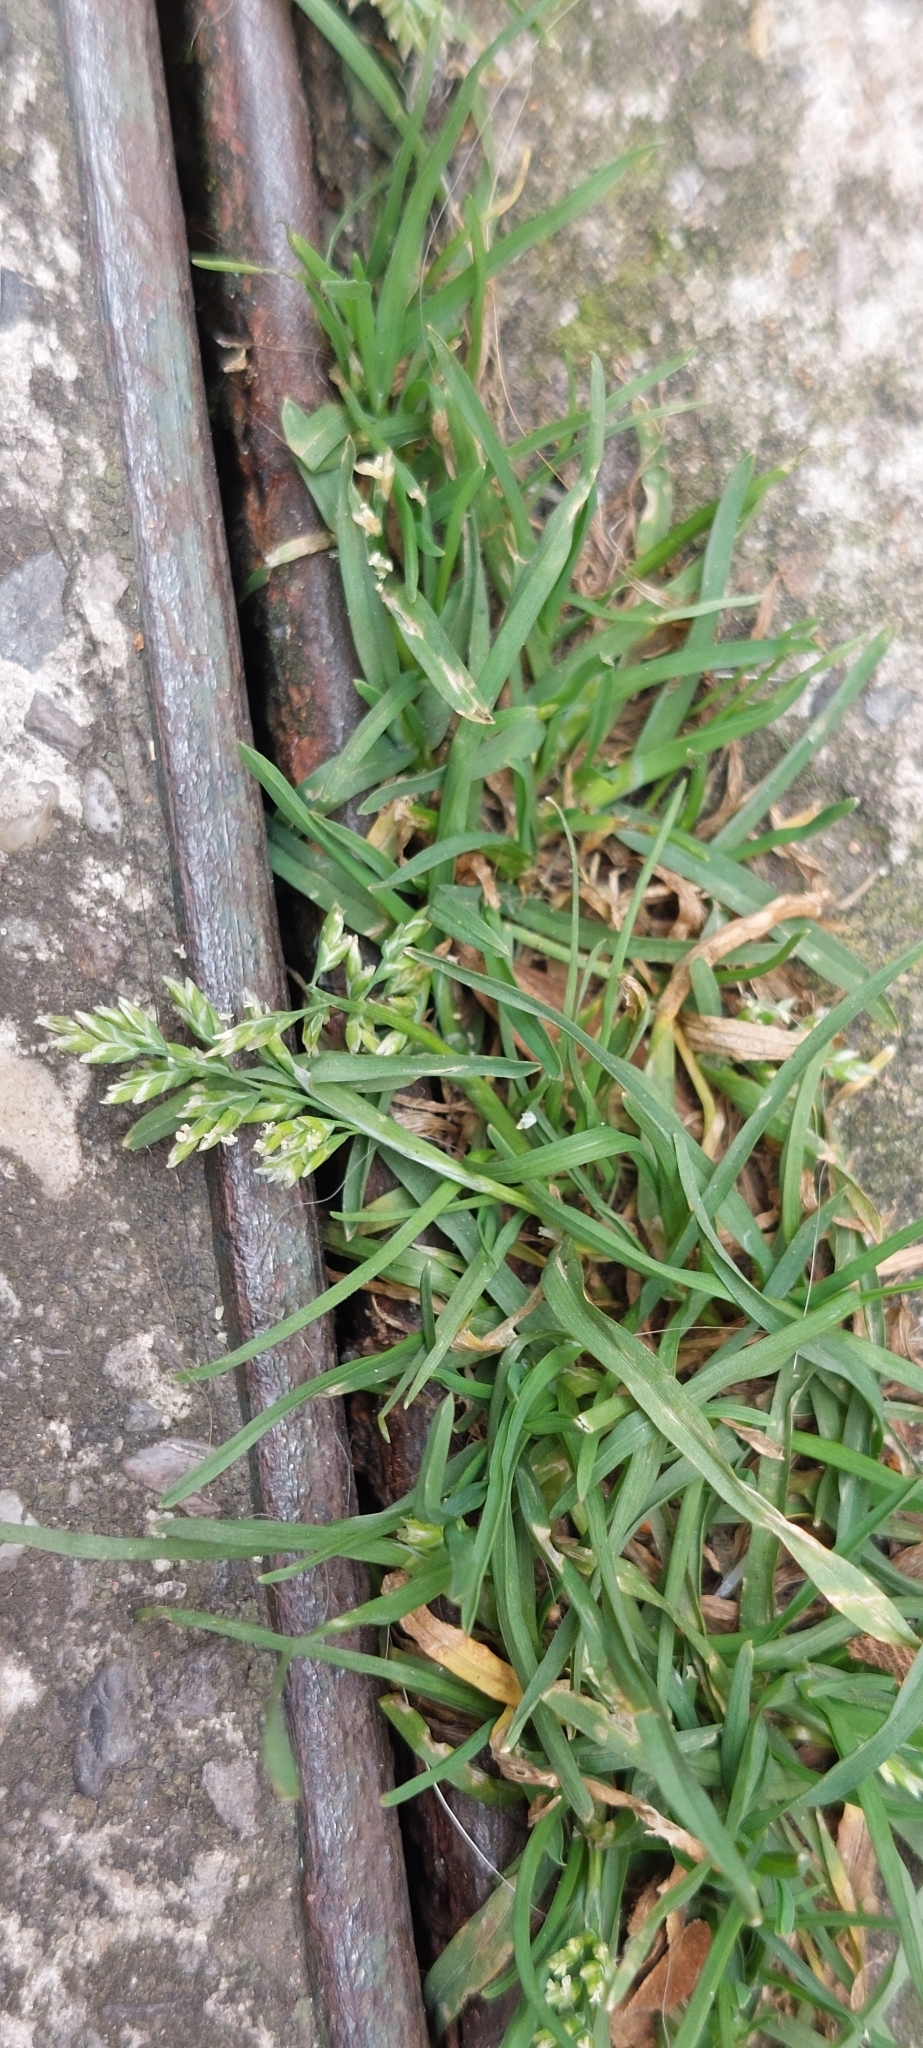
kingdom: Plantae
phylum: Tracheophyta
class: Liliopsida
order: Poales
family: Poaceae
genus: Poa
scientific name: Poa annua
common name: Annual bluegrass
